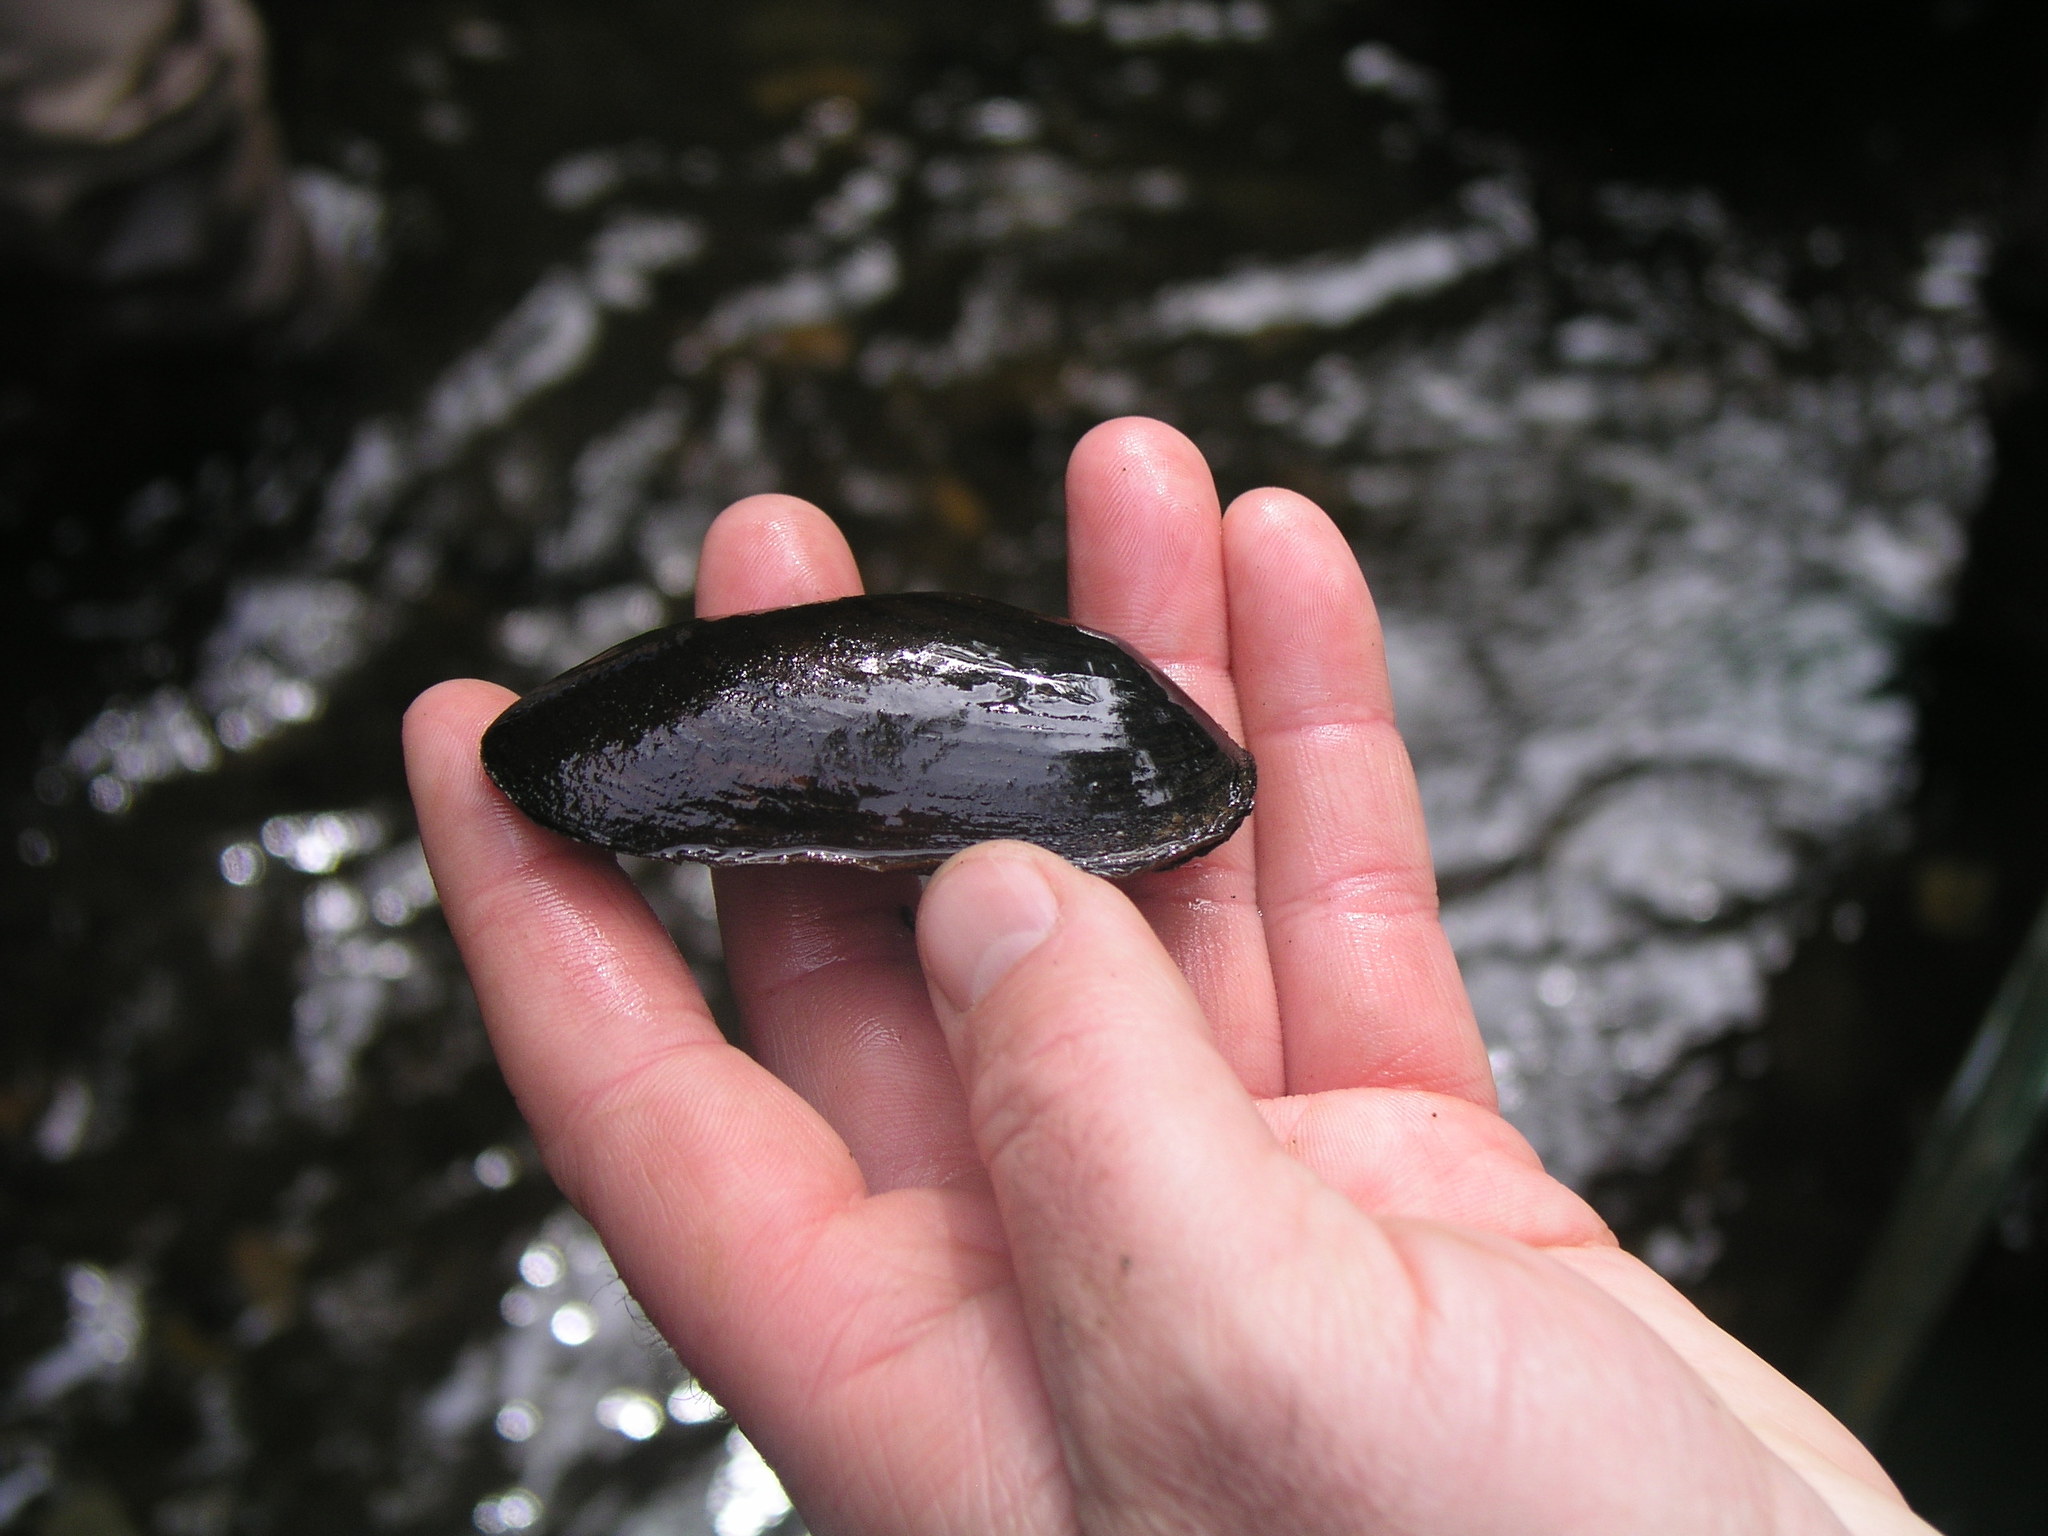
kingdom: Animalia
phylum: Mollusca
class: Bivalvia
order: Unionida
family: Margaritiferidae
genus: Margaritifera
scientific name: Margaritifera falcata
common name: Western pearlshell
